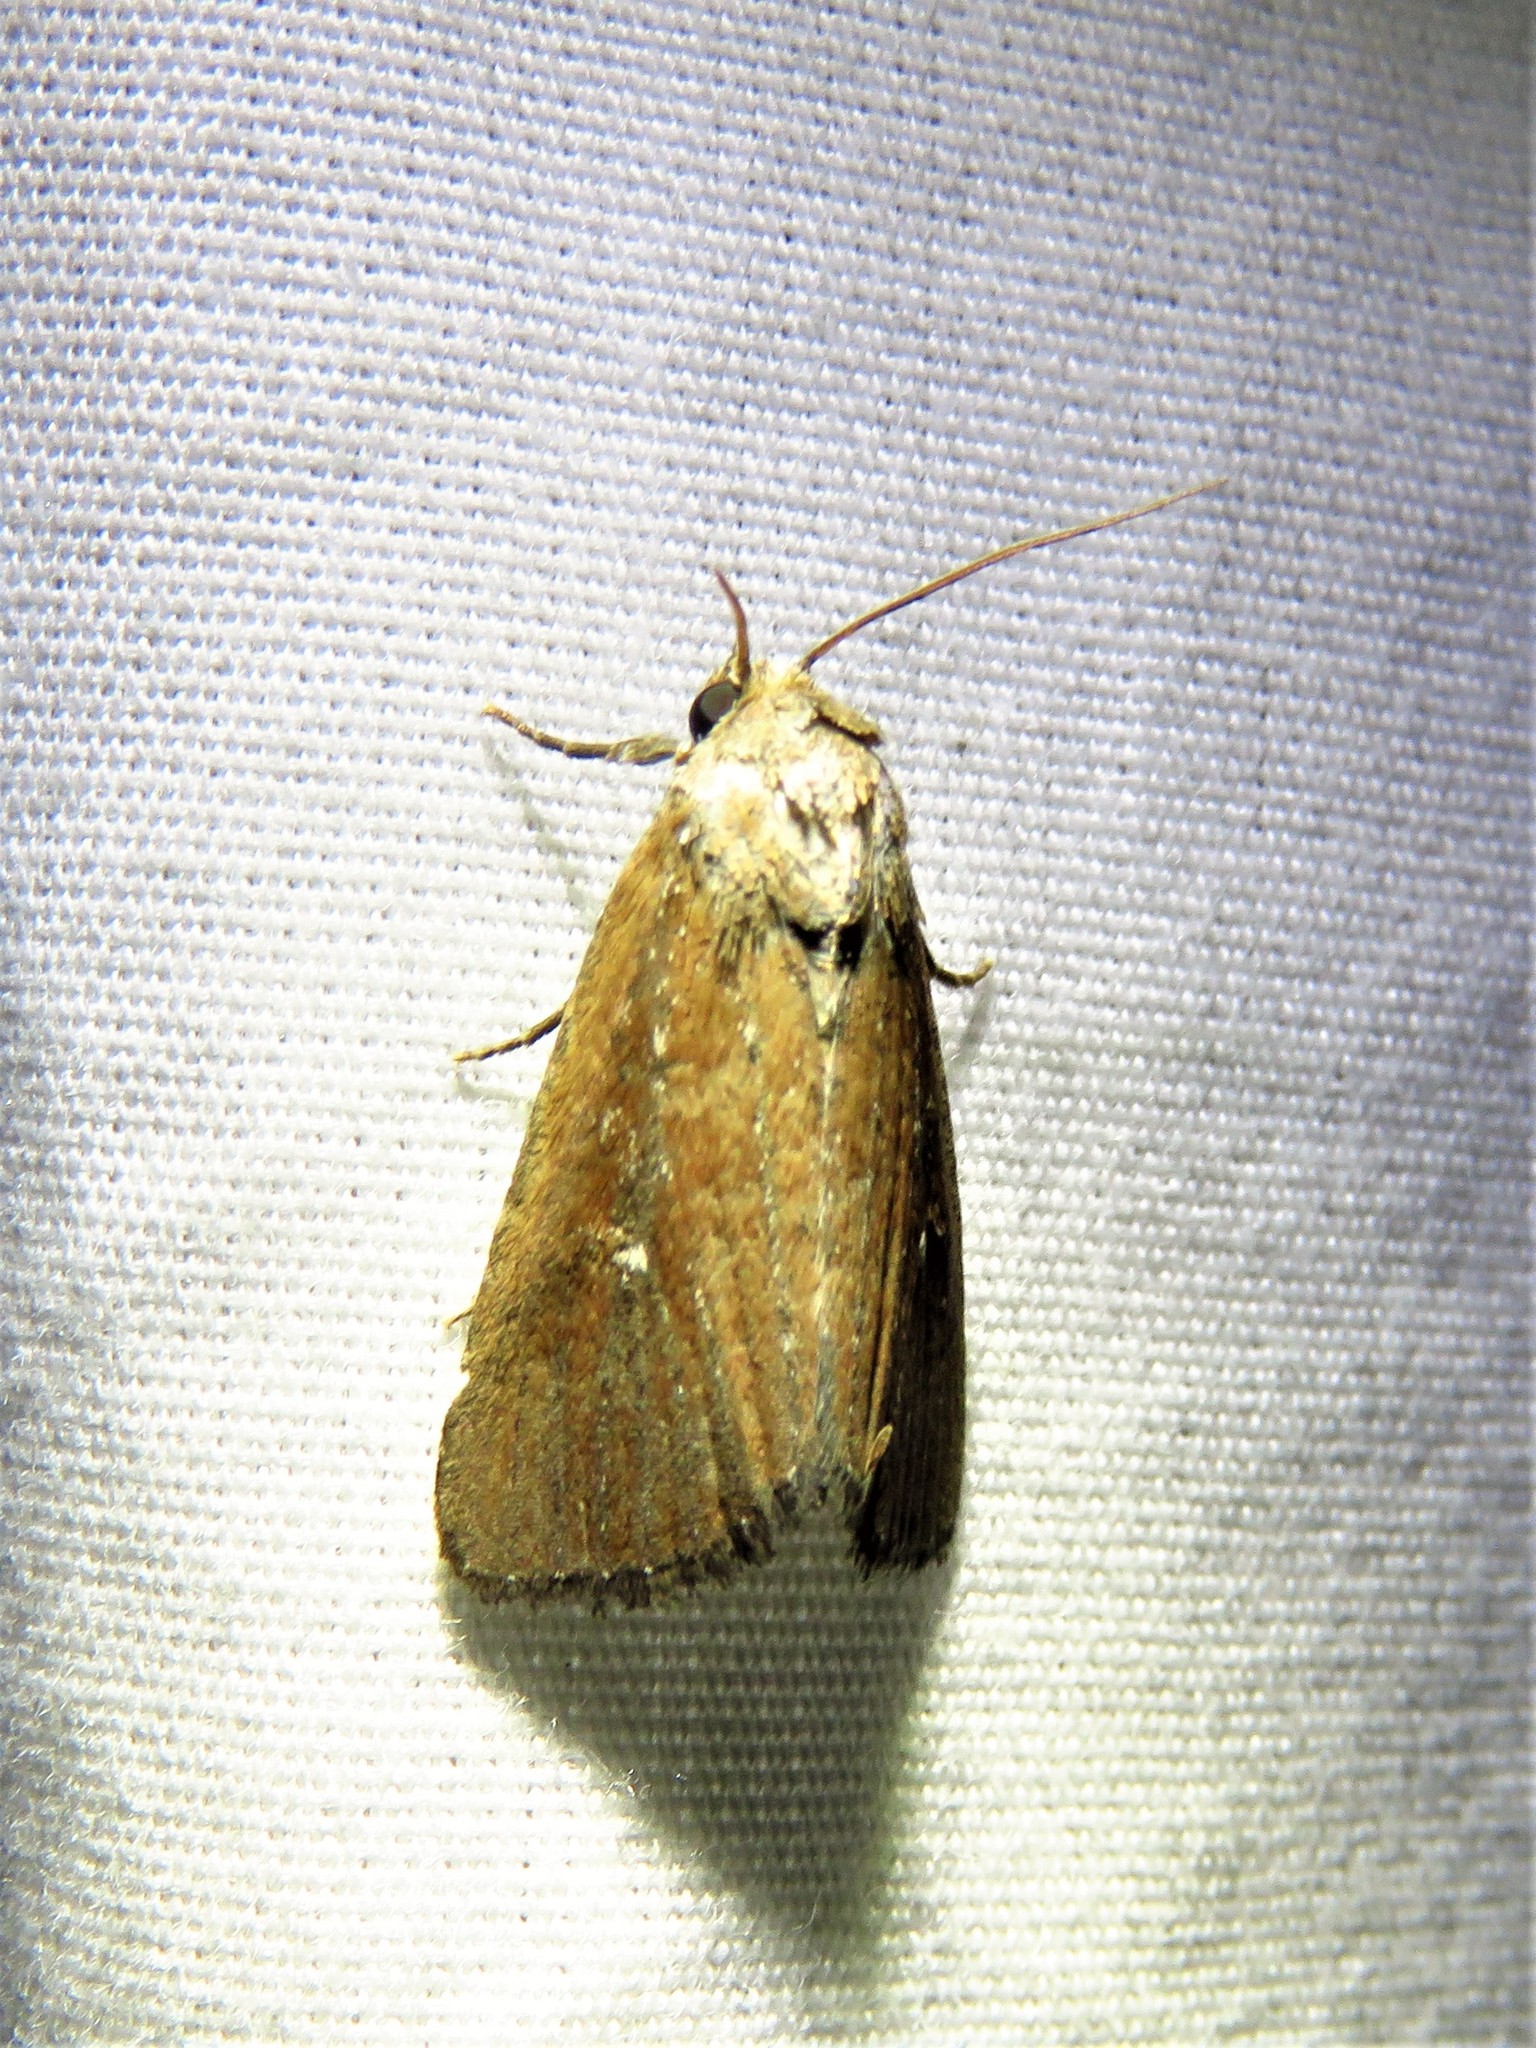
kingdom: Animalia
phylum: Arthropoda
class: Insecta
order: Lepidoptera
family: Noctuidae
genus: Condica
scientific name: Condica videns
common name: White-dotted groundling
